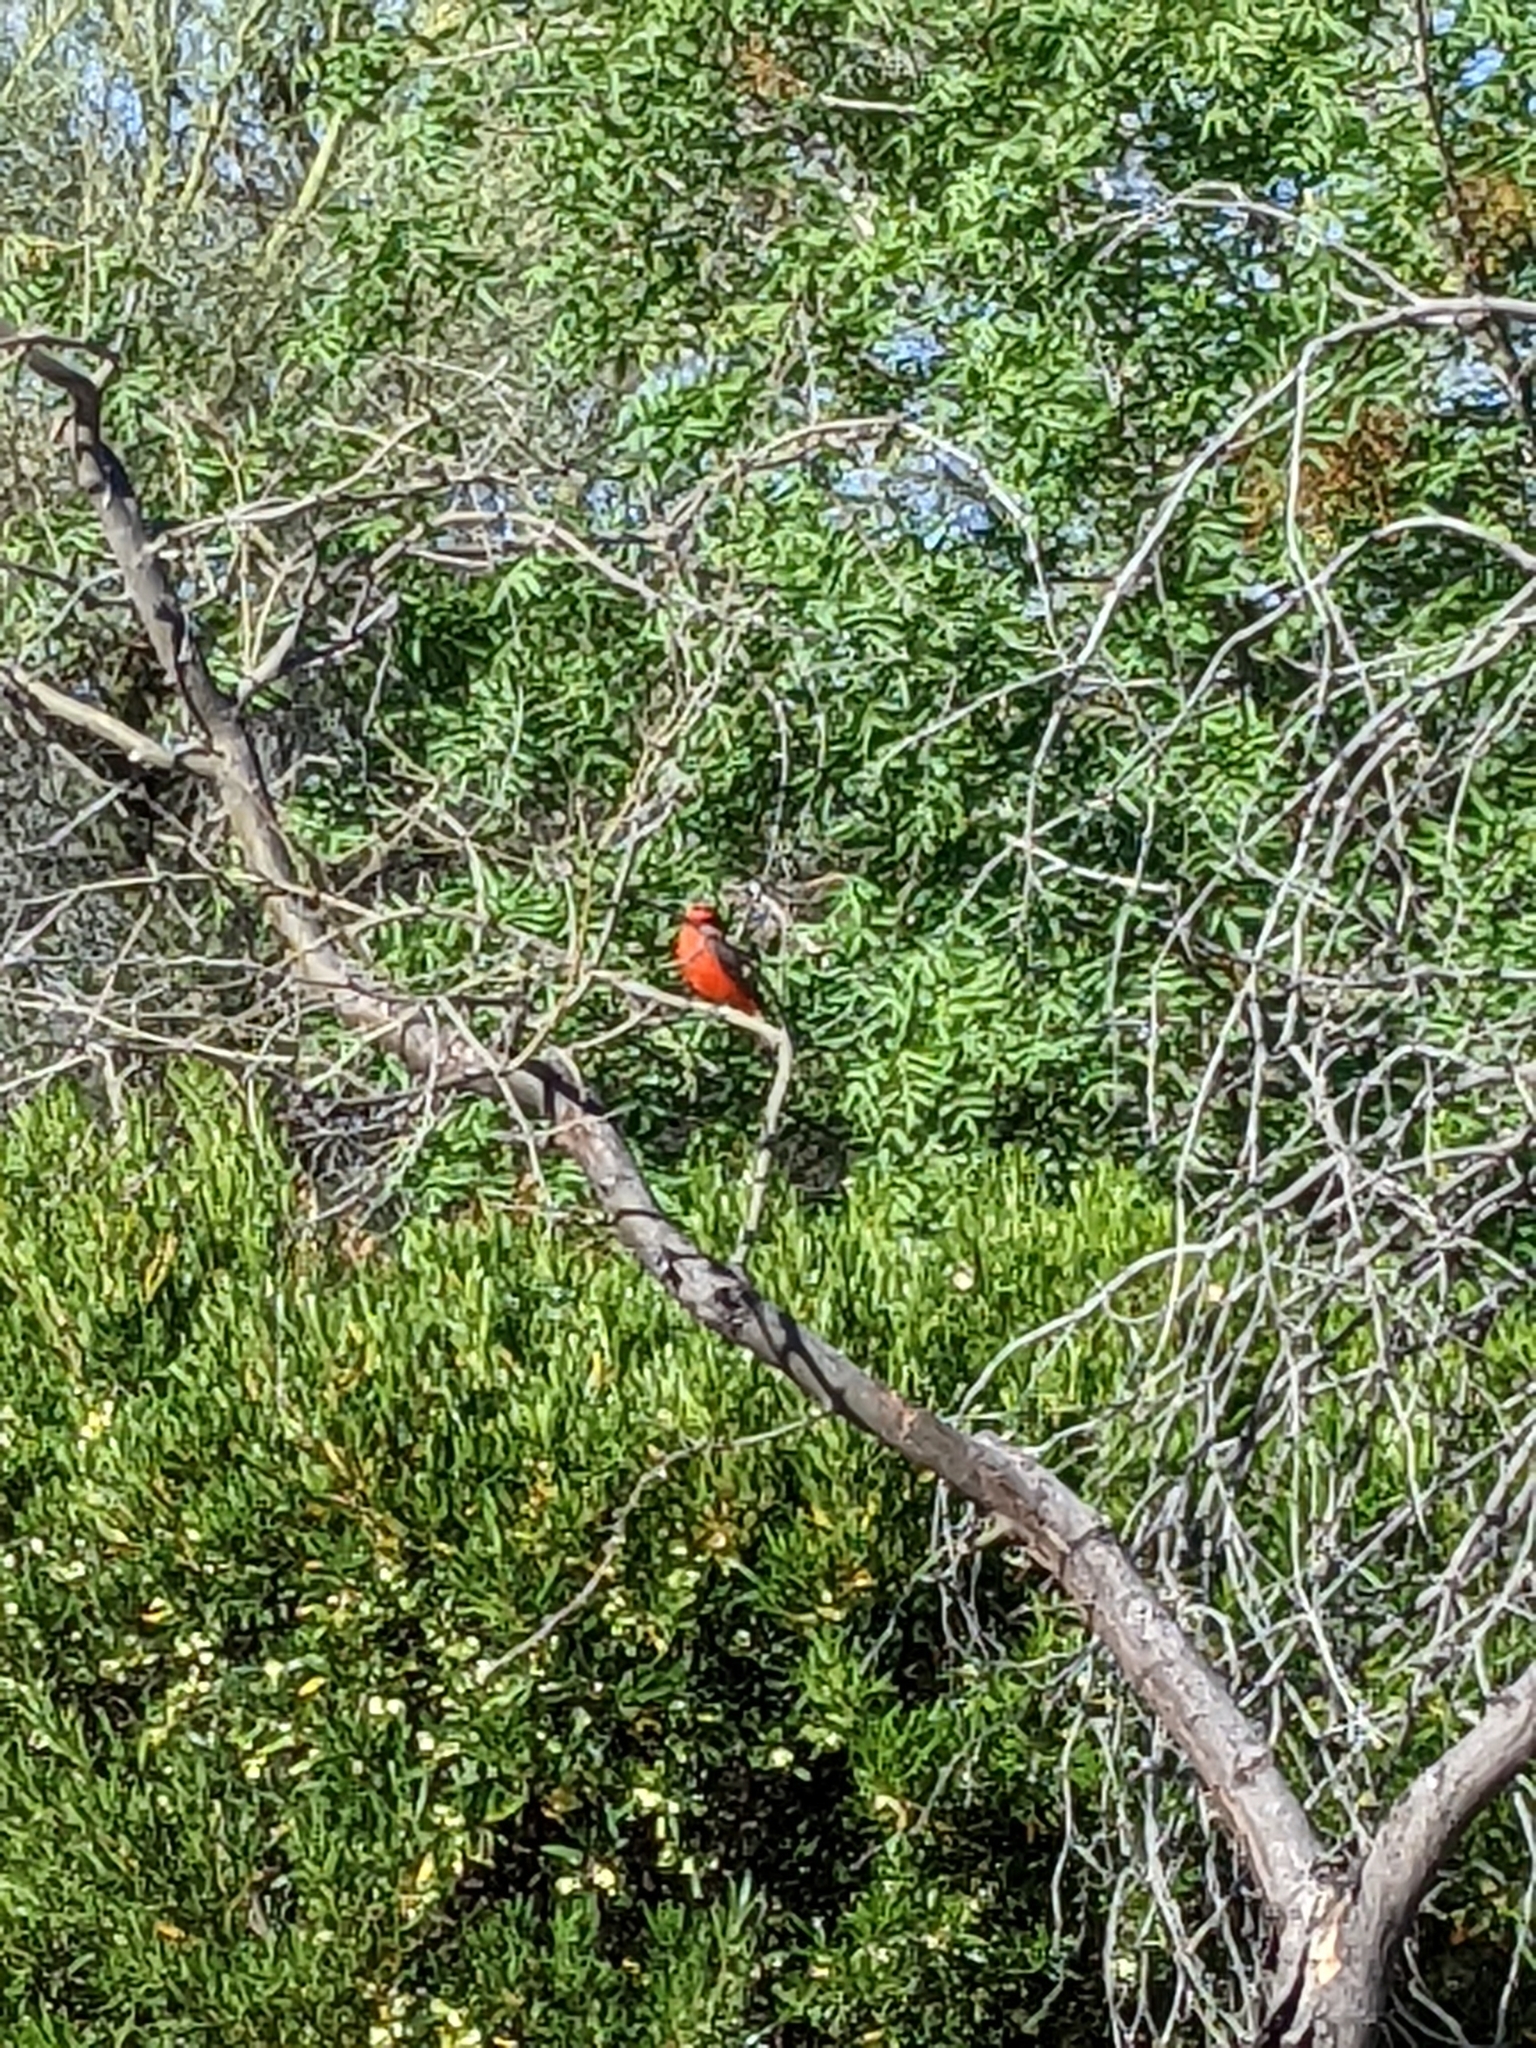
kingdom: Animalia
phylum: Chordata
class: Aves
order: Passeriformes
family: Tyrannidae
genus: Pyrocephalus
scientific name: Pyrocephalus rubinus
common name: Vermilion flycatcher
